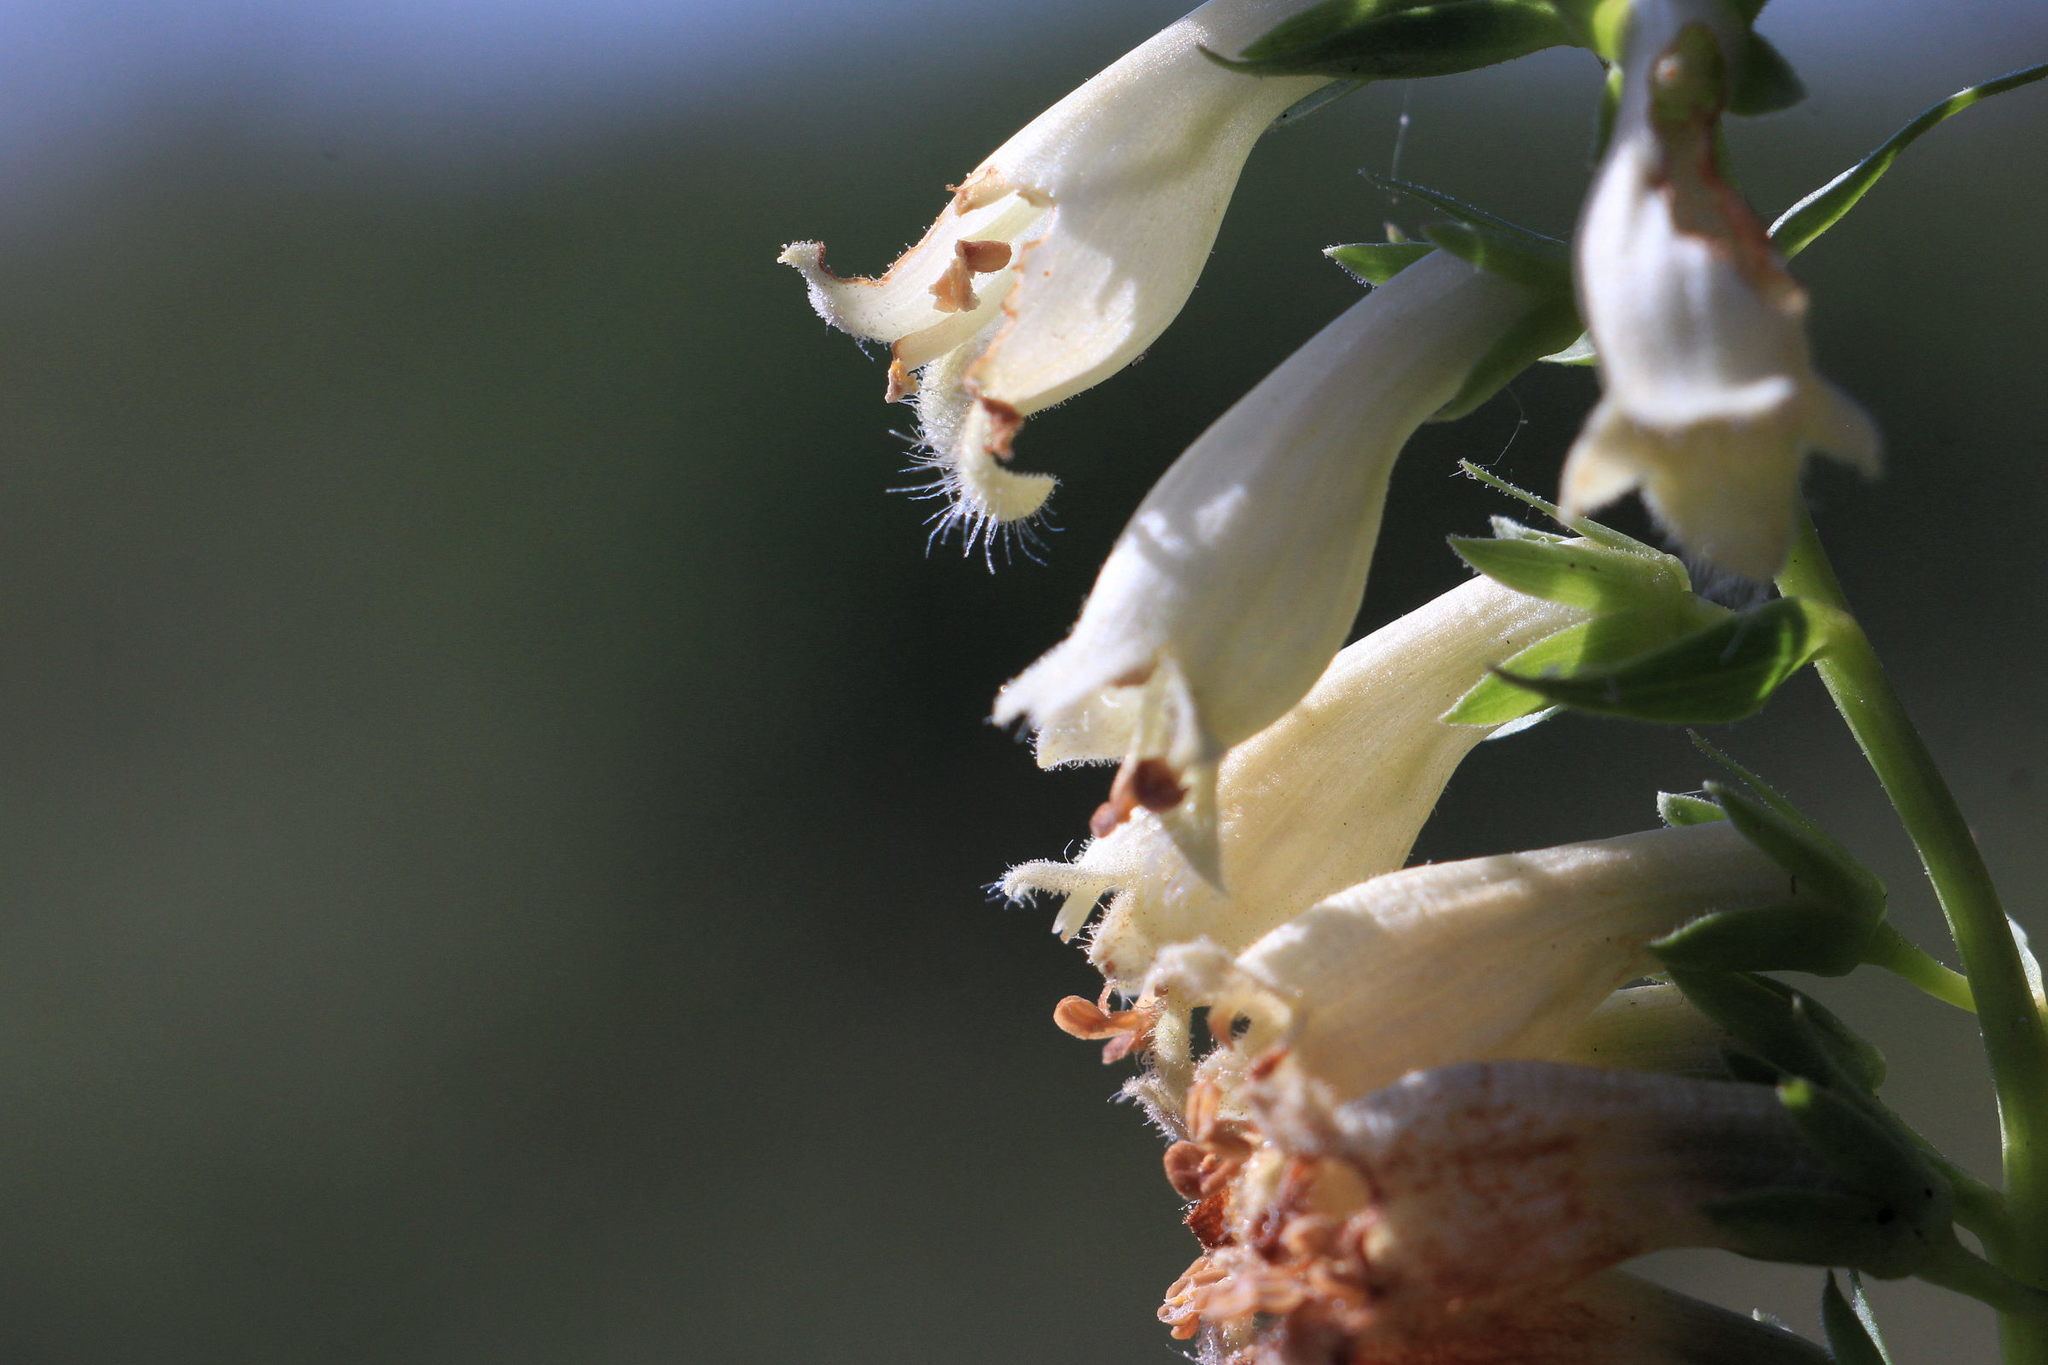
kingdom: Plantae
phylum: Tracheophyta
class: Magnoliopsida
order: Lamiales
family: Plantaginaceae
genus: Digitalis
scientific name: Digitalis lutea
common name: Straw foxglove
